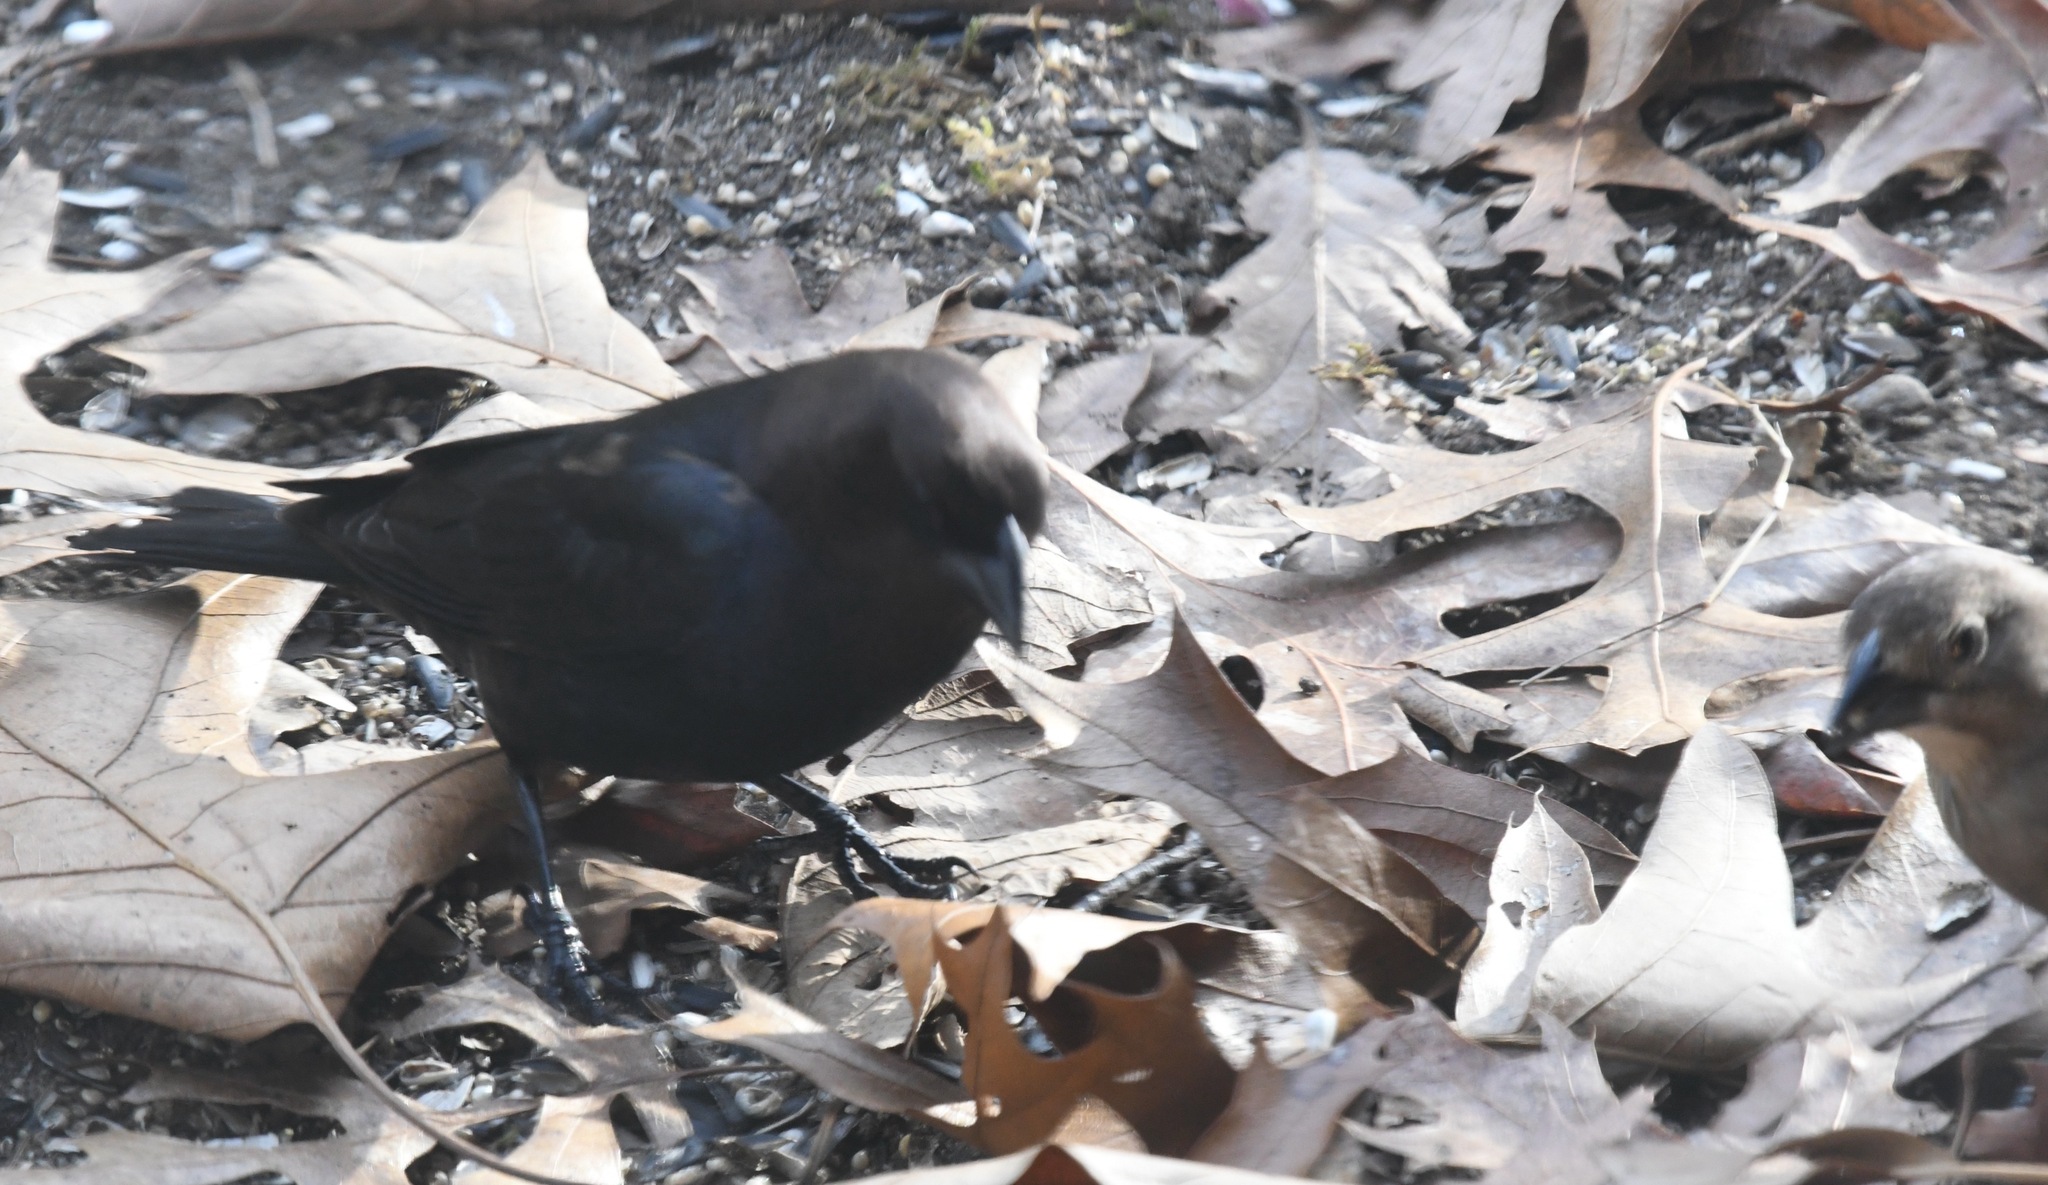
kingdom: Animalia
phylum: Chordata
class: Aves
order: Passeriformes
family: Icteridae
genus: Molothrus
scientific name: Molothrus ater
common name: Brown-headed cowbird
